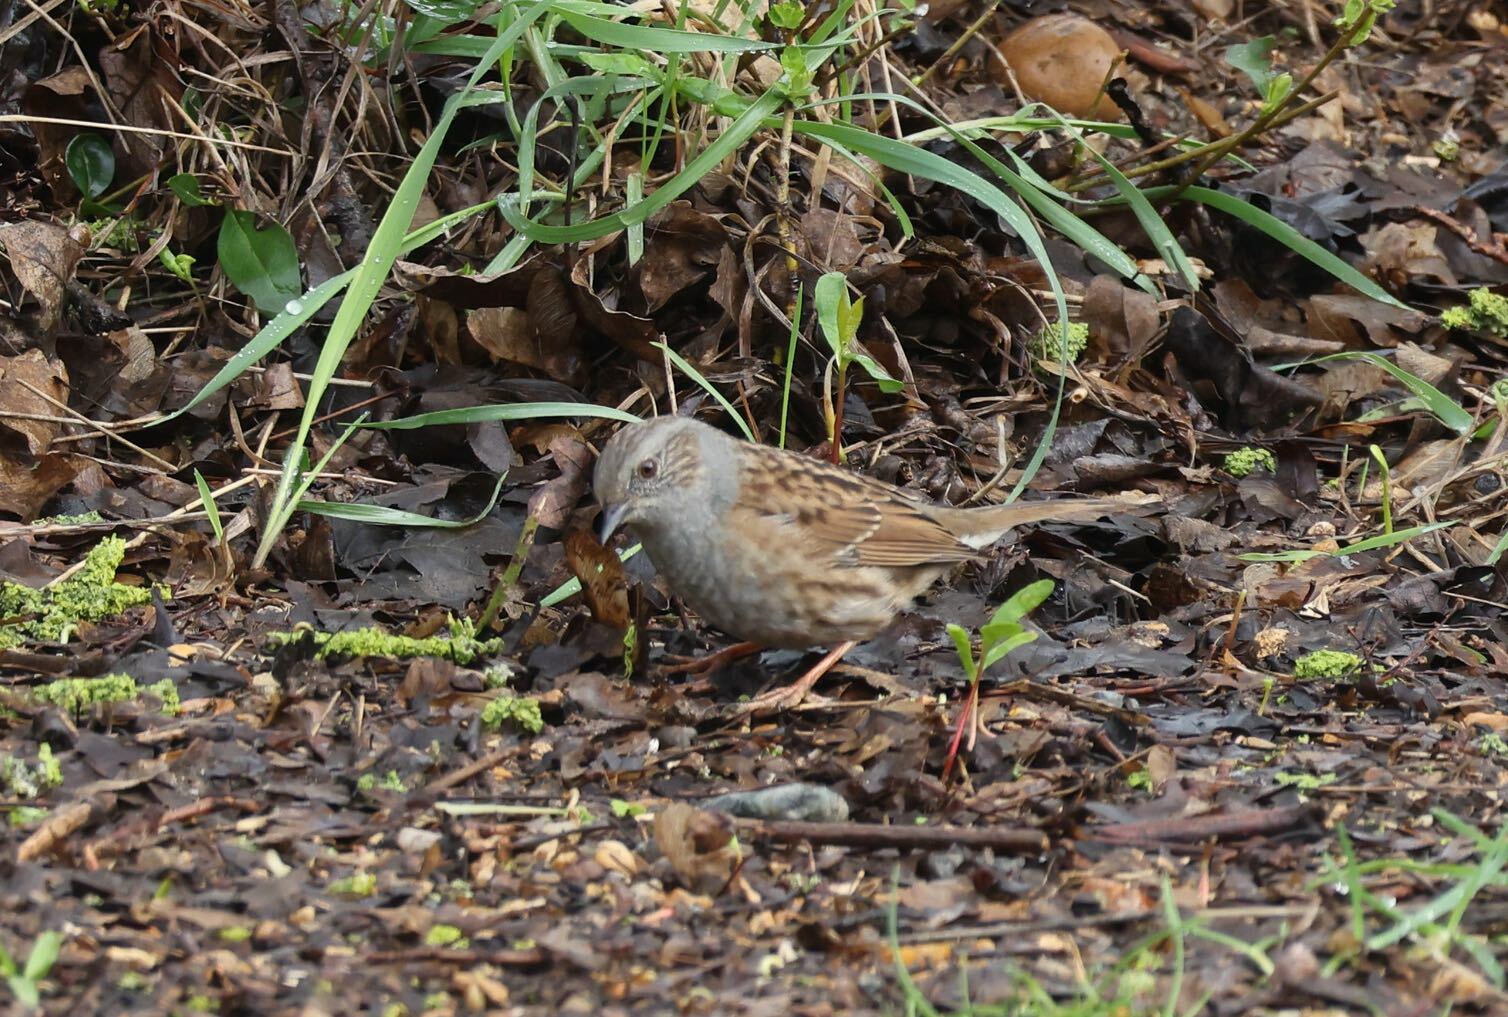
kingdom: Animalia
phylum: Chordata
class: Aves
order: Passeriformes
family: Prunellidae
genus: Prunella
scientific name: Prunella modularis
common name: Dunnock
